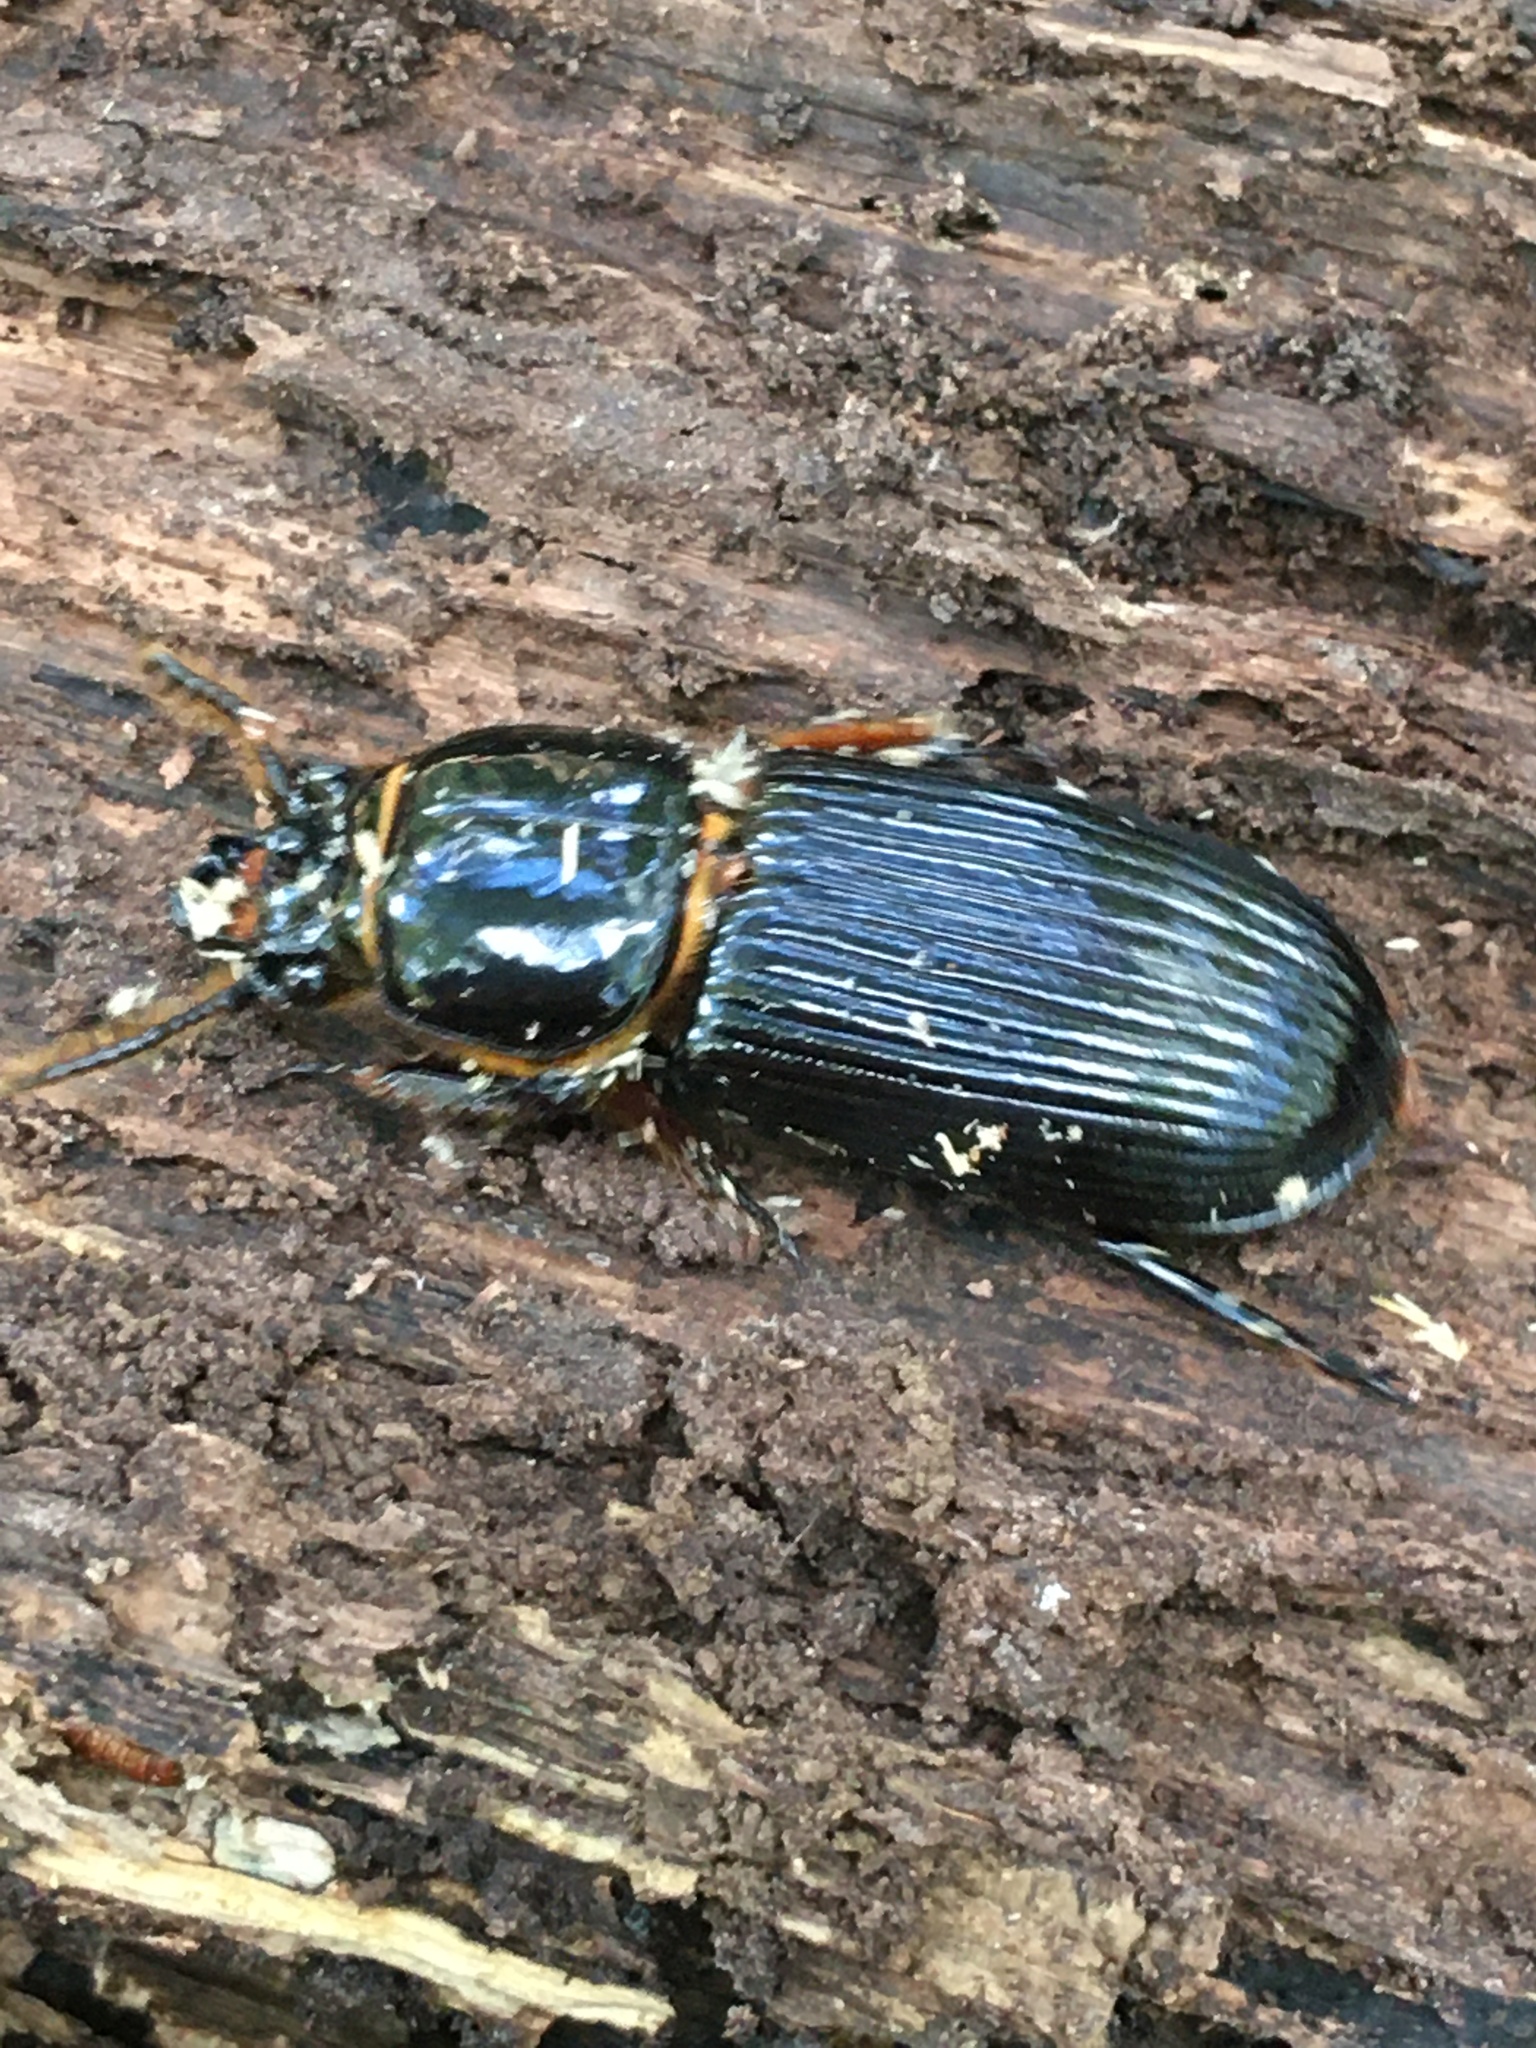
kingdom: Animalia
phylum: Arthropoda
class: Insecta
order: Coleoptera
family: Passalidae
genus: Odontotaenius
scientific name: Odontotaenius disjunctus
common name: Patent leather beetle
